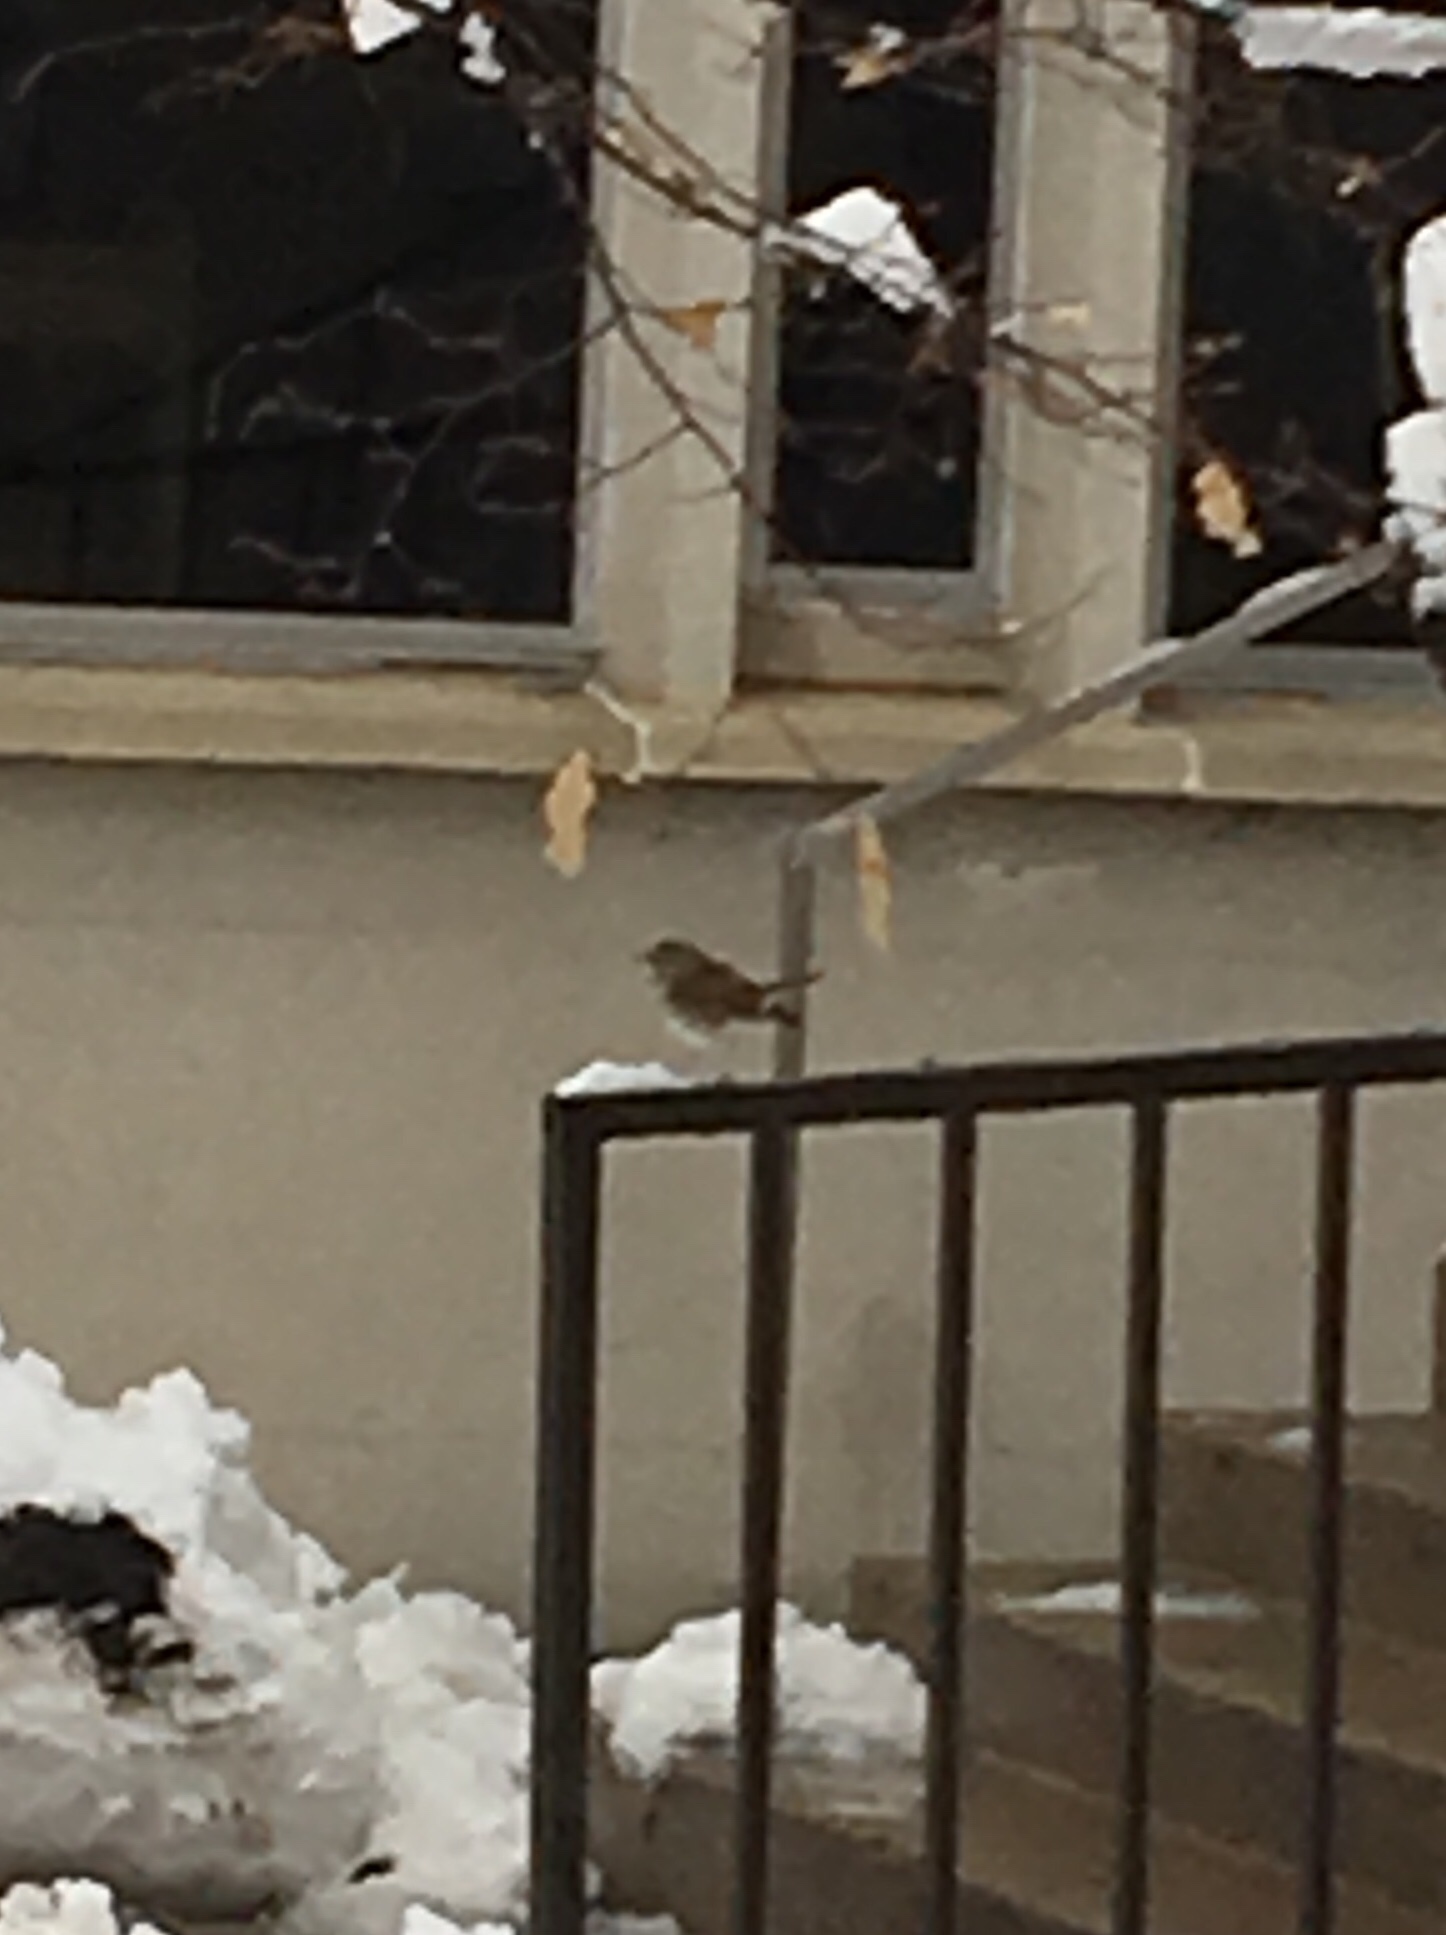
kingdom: Animalia
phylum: Chordata
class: Aves
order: Passeriformes
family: Turdidae
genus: Catharus
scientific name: Catharus guttatus
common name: Hermit thrush
